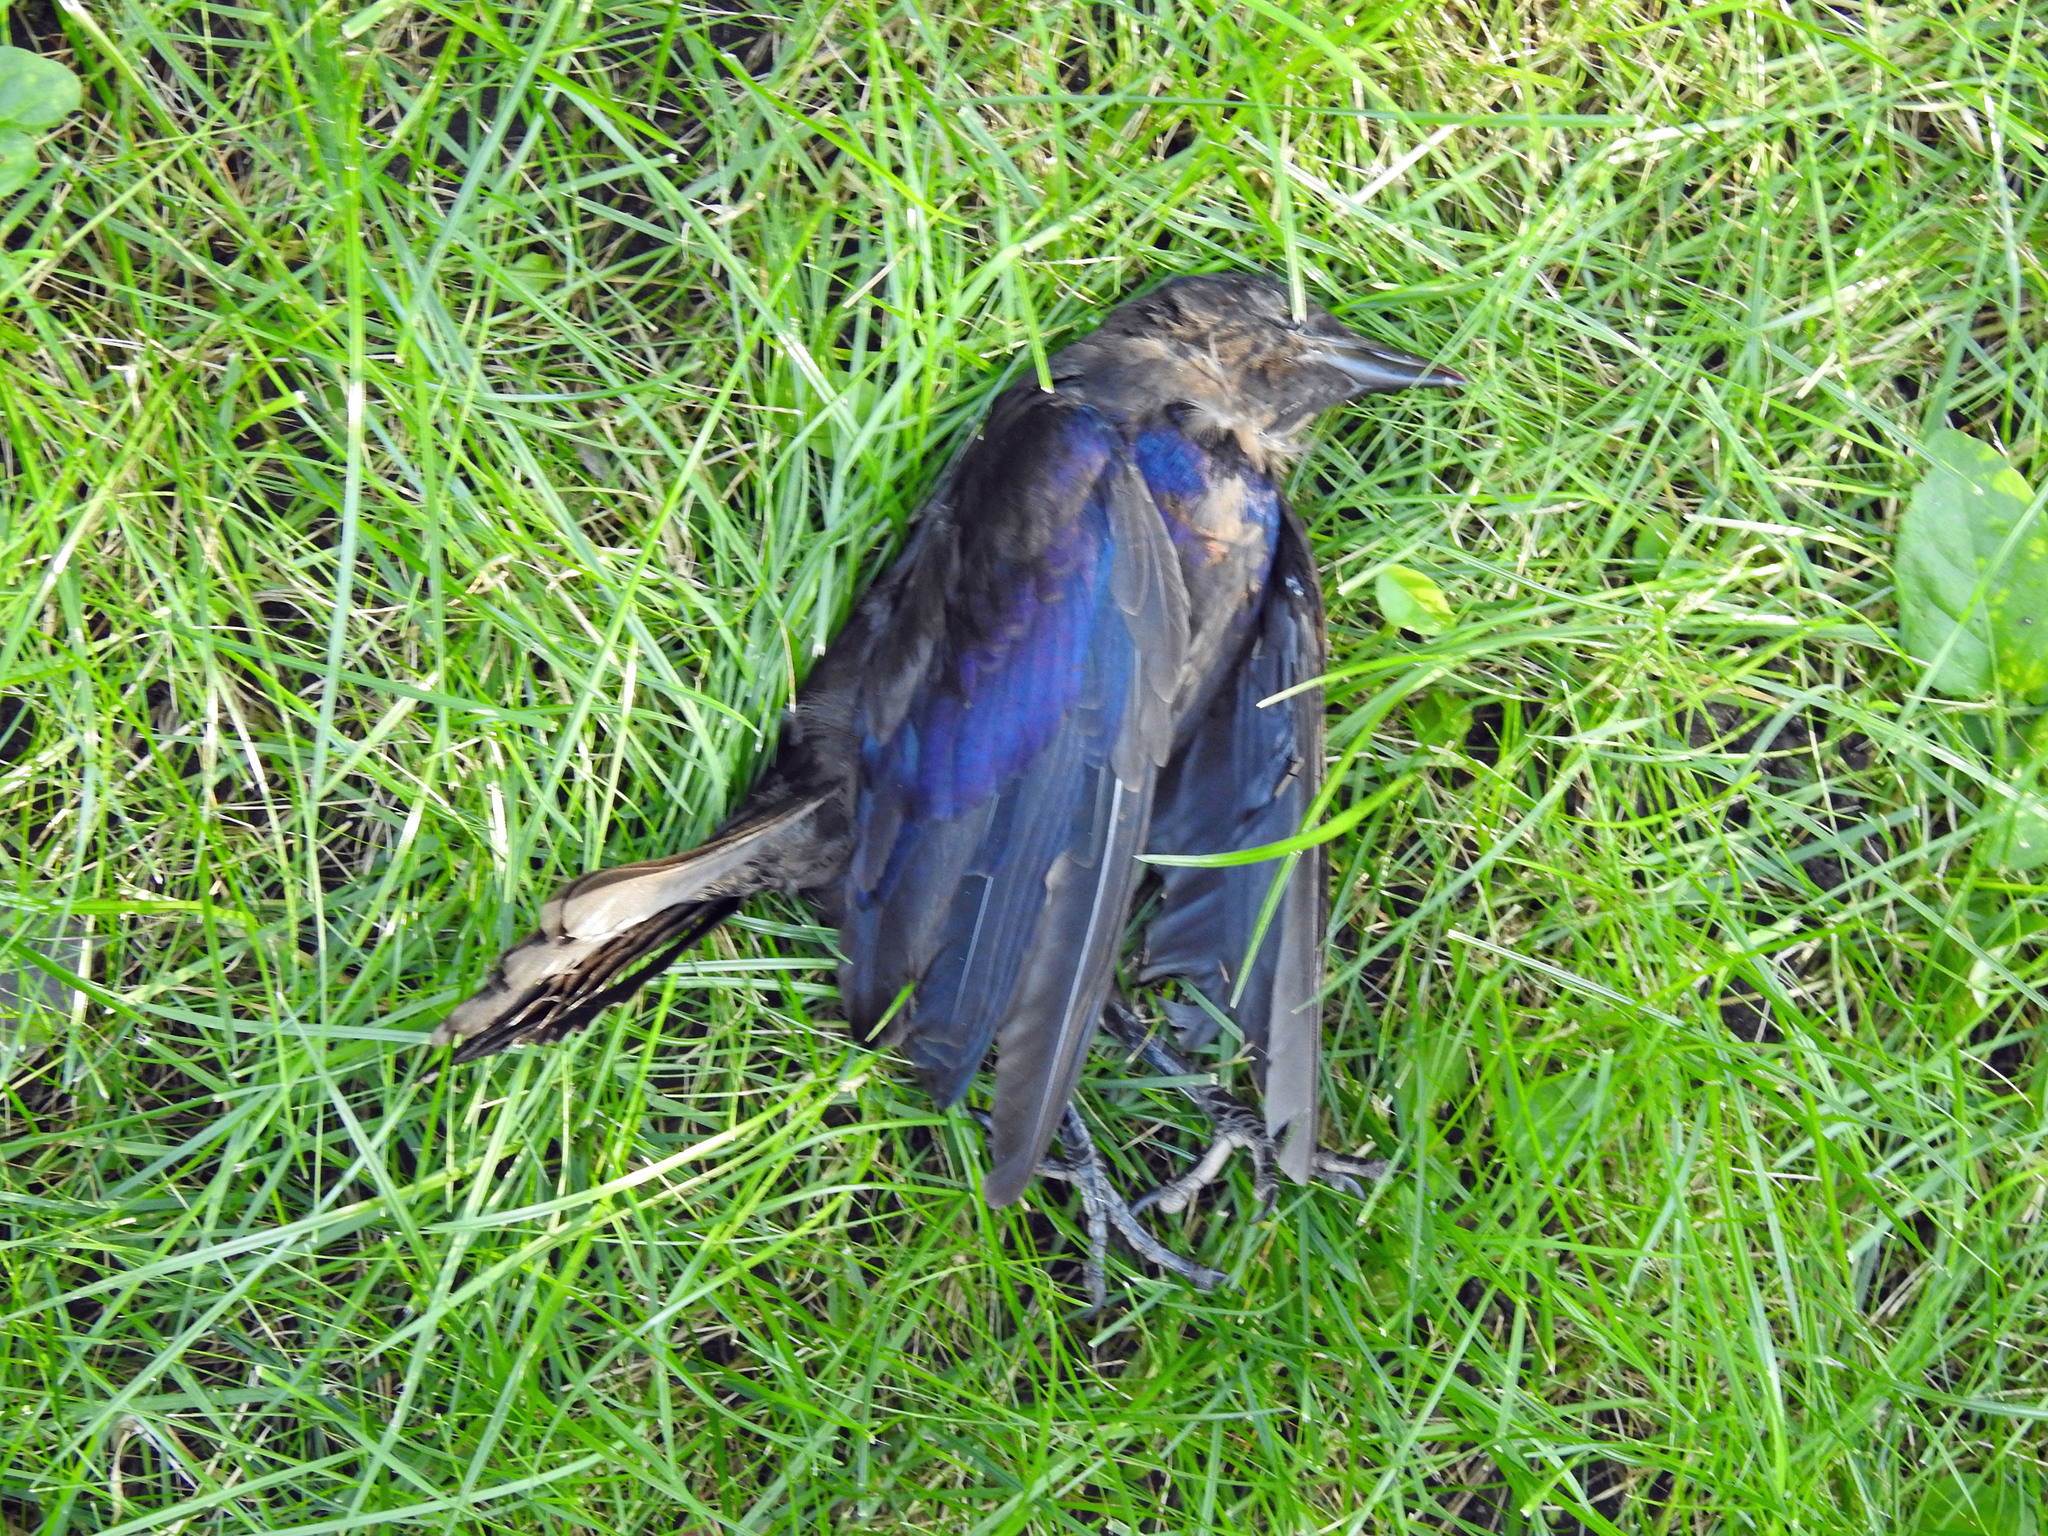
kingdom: Animalia
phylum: Chordata
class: Aves
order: Passeriformes
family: Icteridae
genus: Quiscalus
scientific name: Quiscalus quiscula
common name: Common grackle
